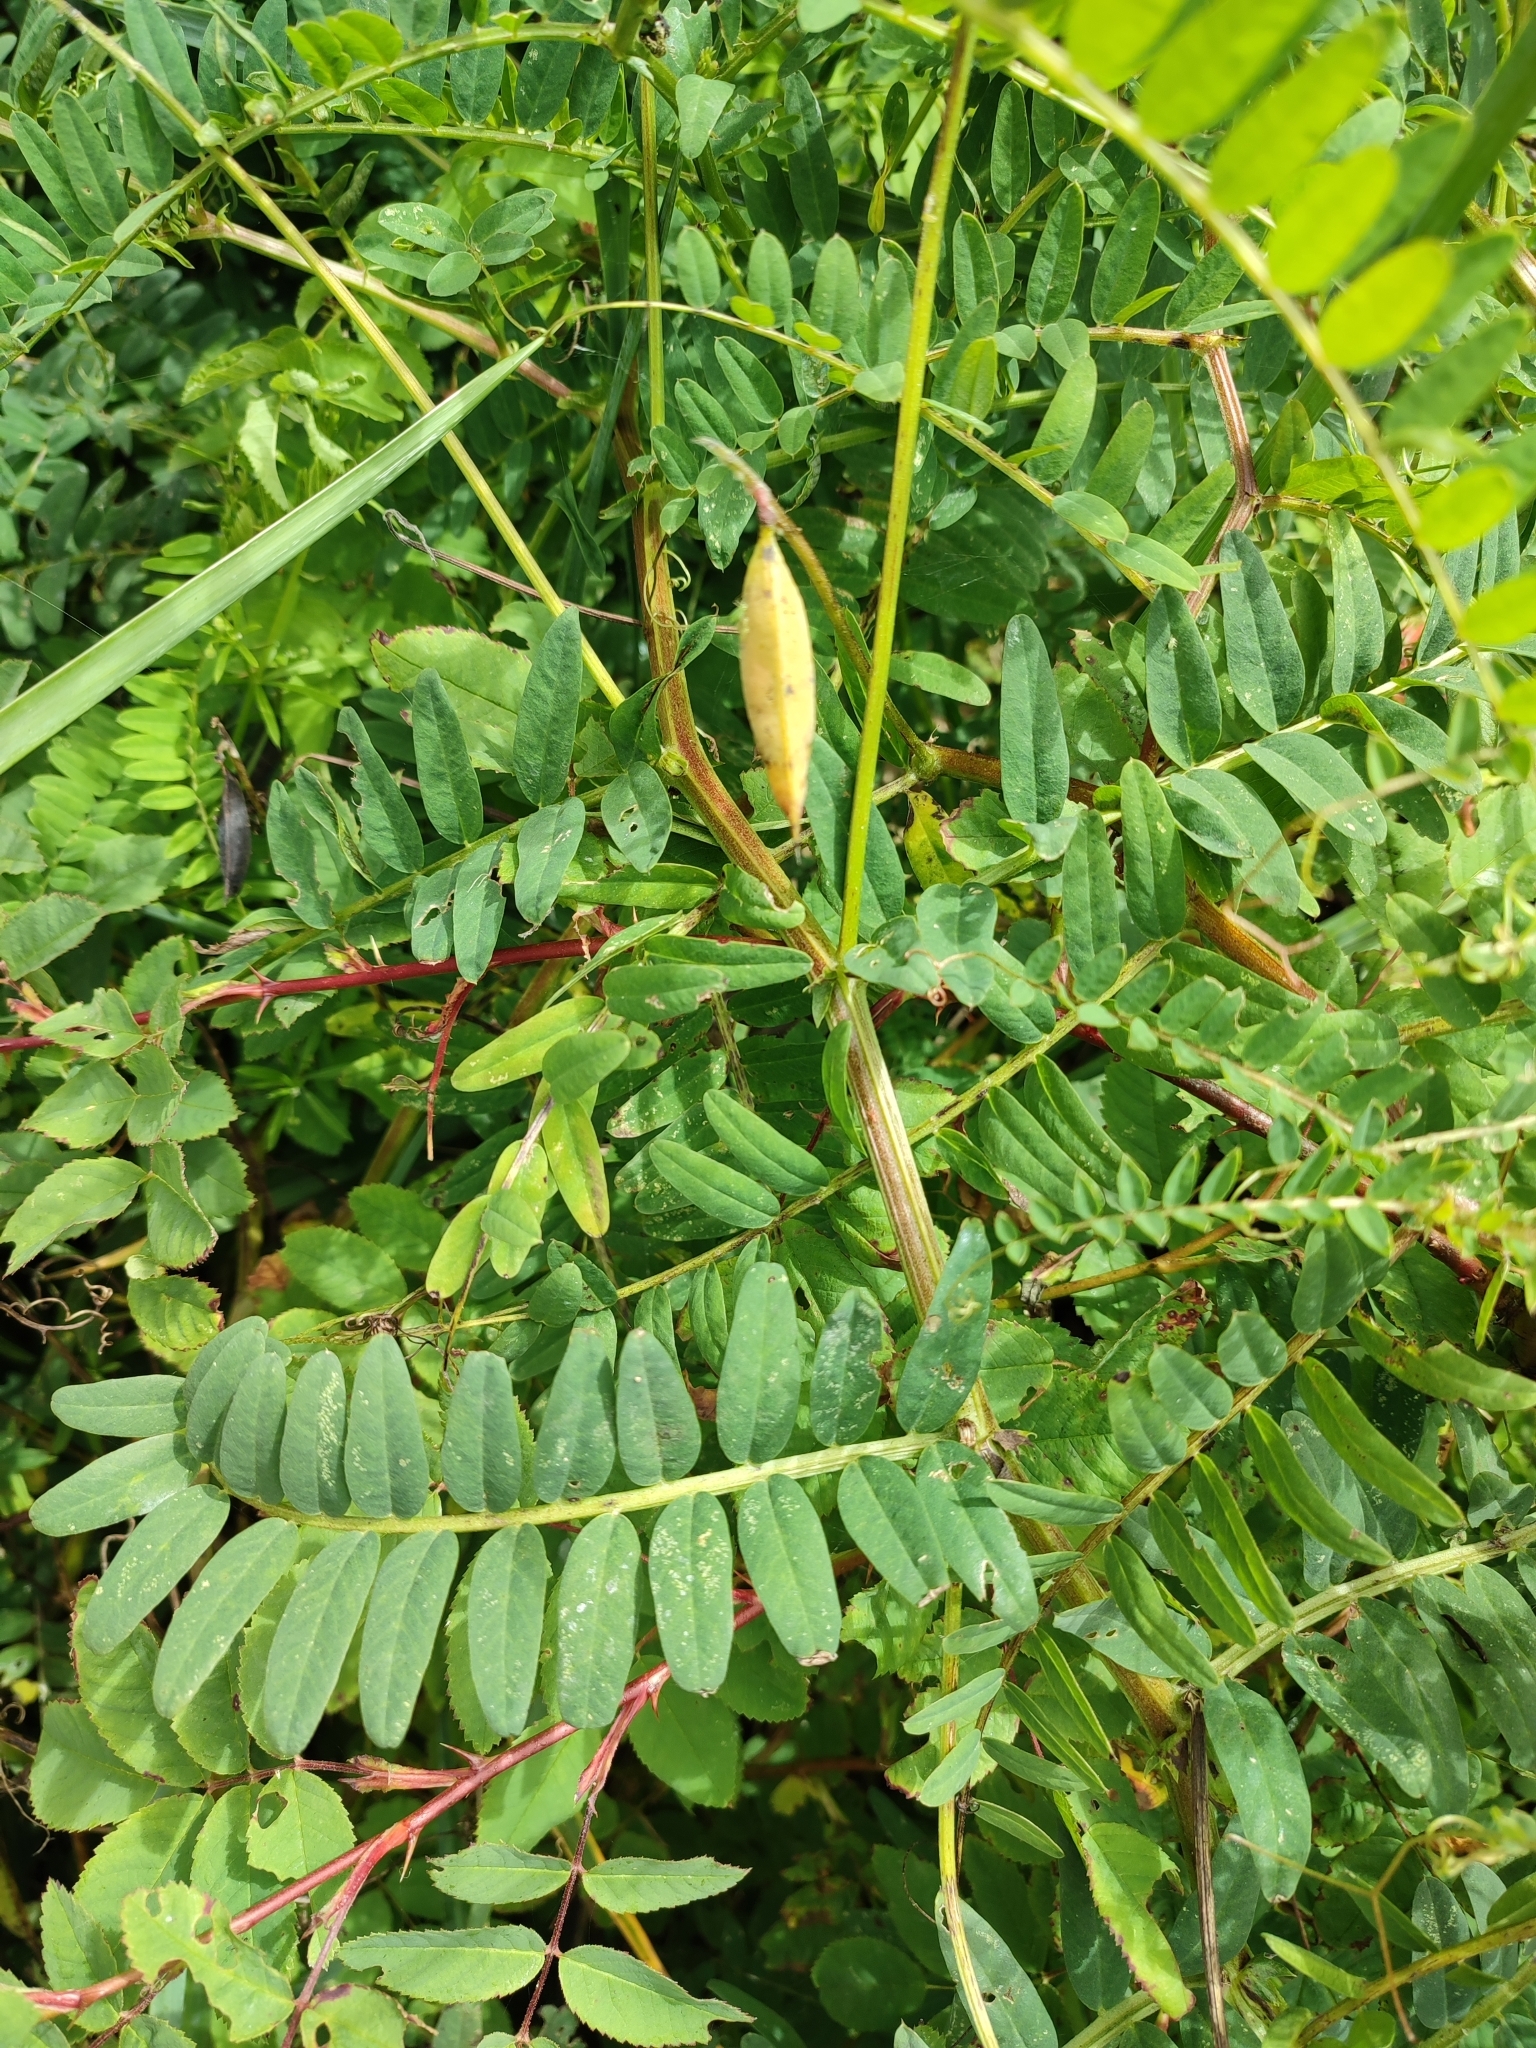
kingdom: Plantae
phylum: Tracheophyta
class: Magnoliopsida
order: Fabales
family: Fabaceae
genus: Vicia
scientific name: Vicia
